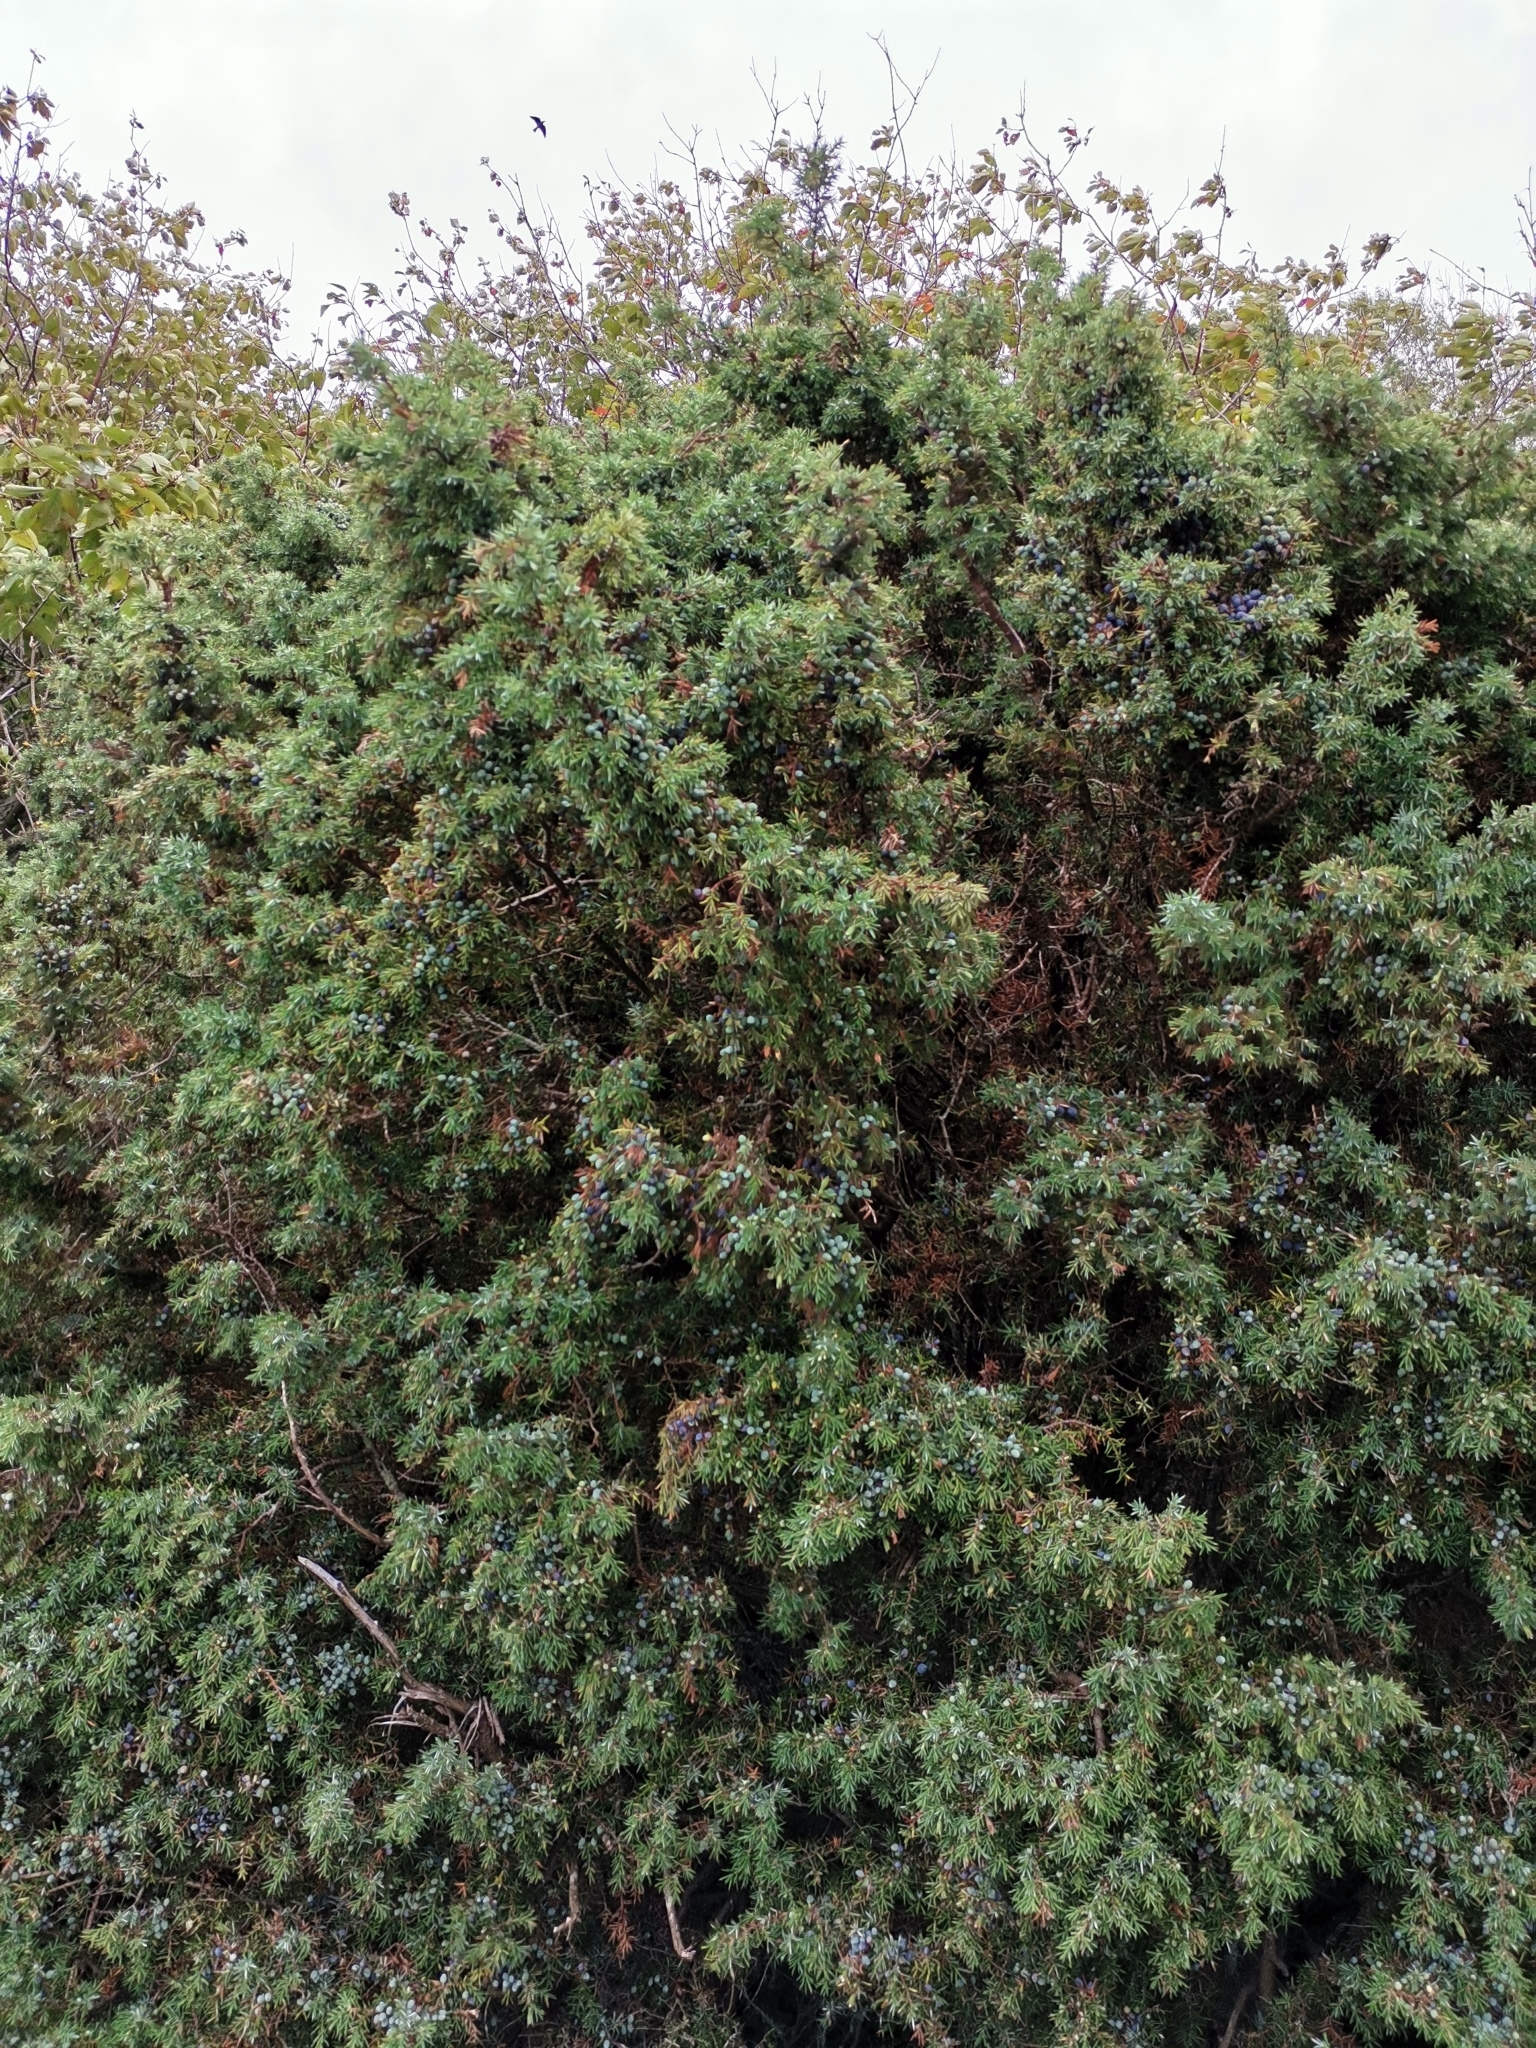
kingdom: Plantae
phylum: Tracheophyta
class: Pinopsida
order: Pinales
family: Cupressaceae
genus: Juniperus
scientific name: Juniperus communis
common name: Common juniper
